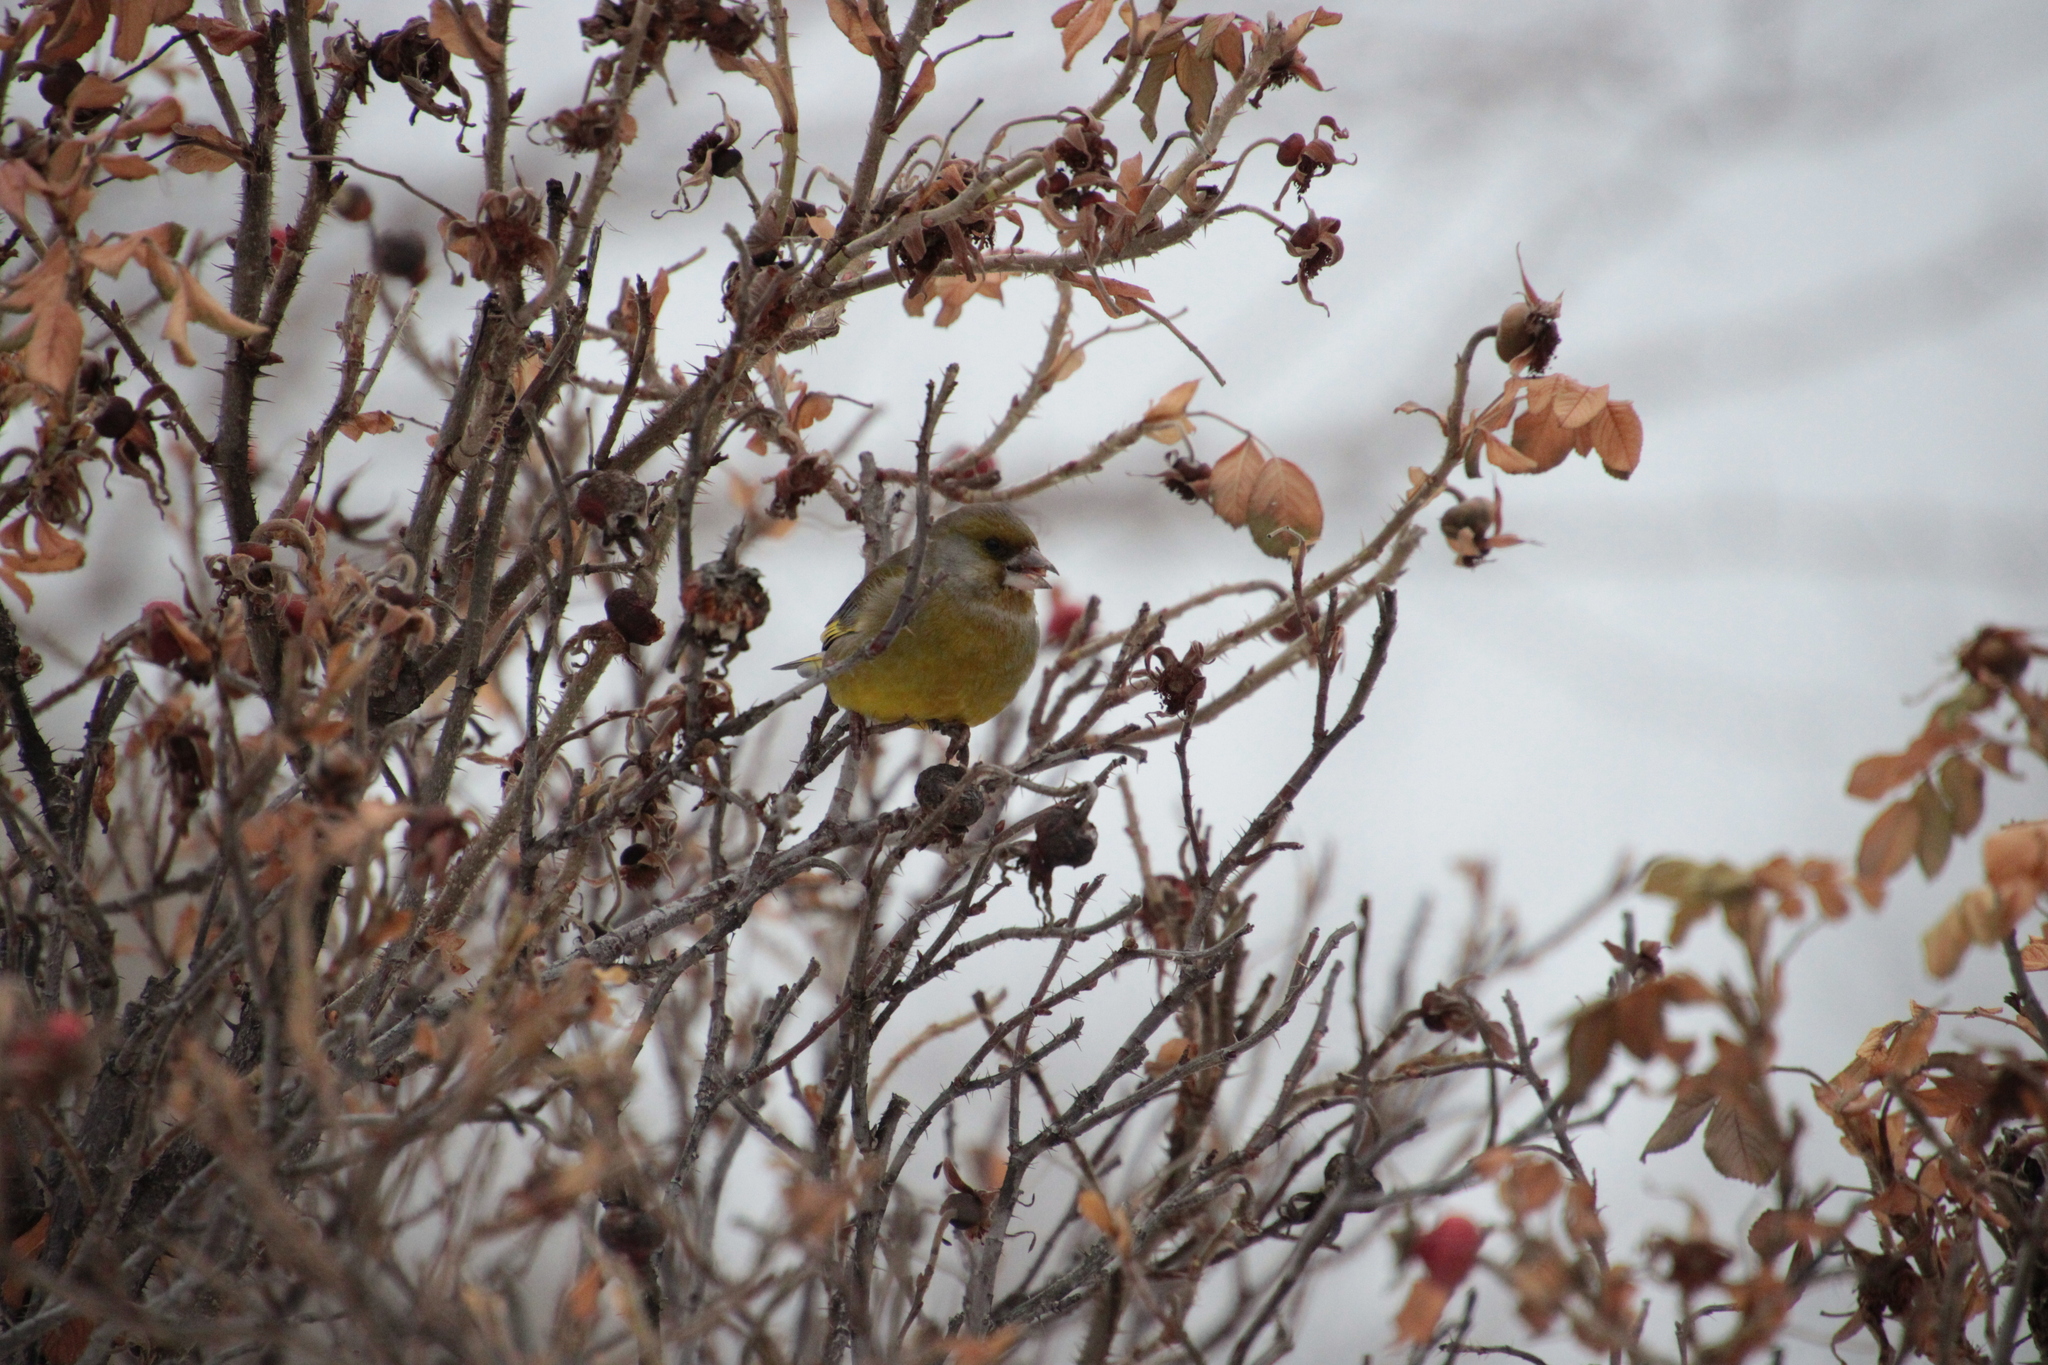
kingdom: Plantae
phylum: Tracheophyta
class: Liliopsida
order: Poales
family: Poaceae
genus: Chloris
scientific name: Chloris chloris
